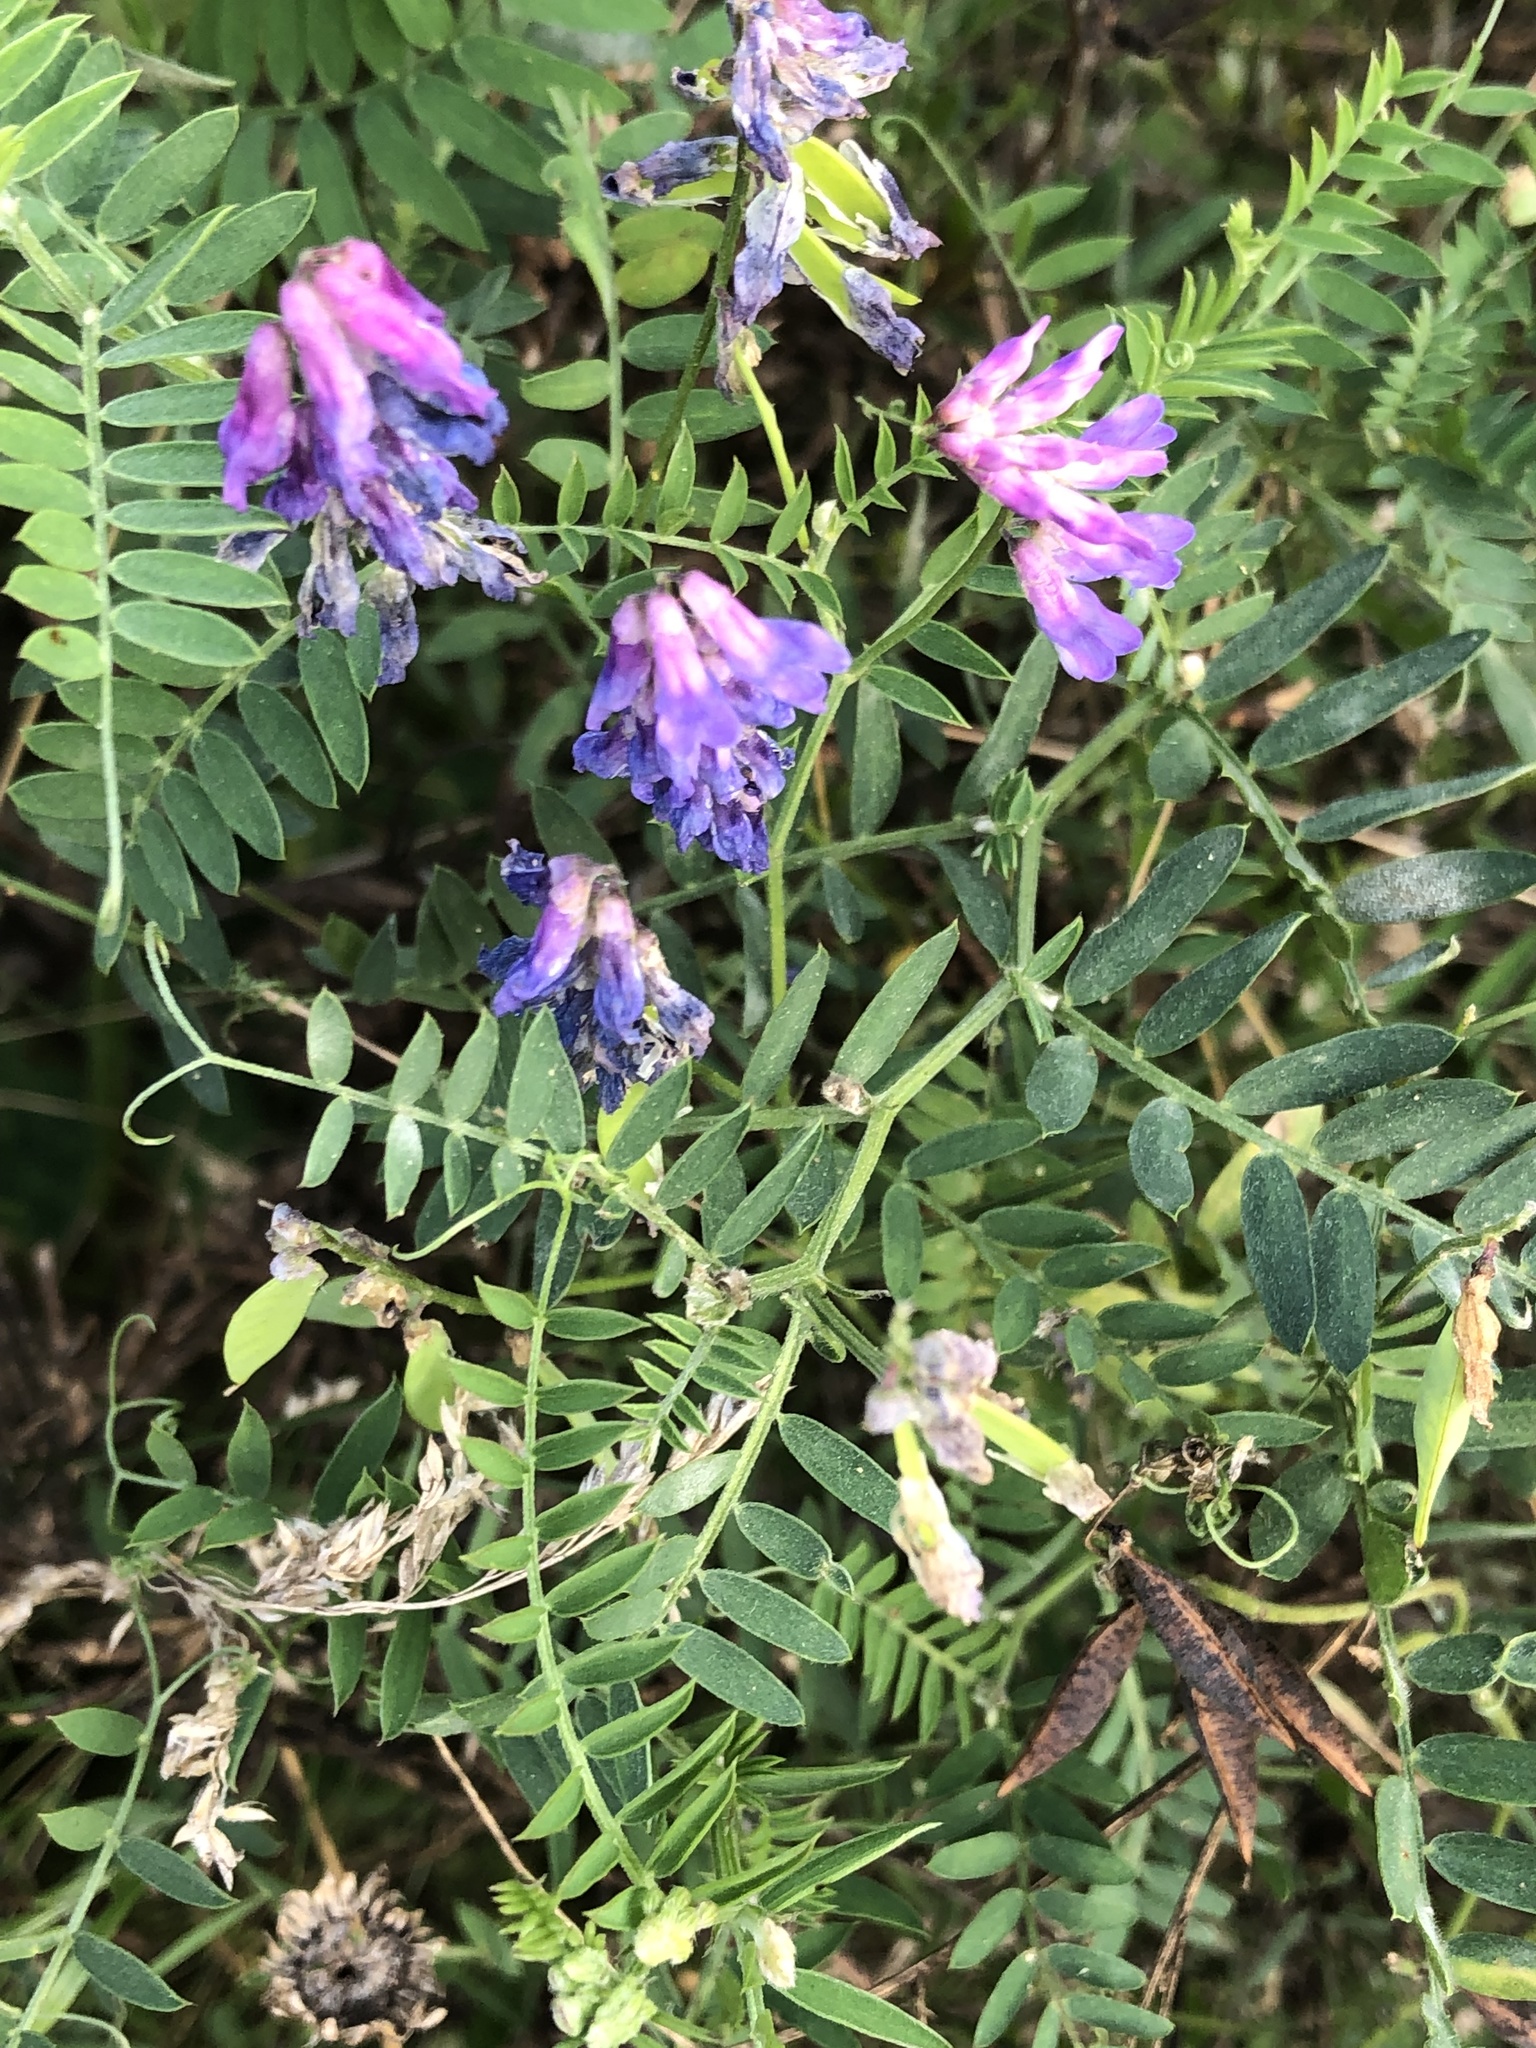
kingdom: Plantae
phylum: Tracheophyta
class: Magnoliopsida
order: Fabales
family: Fabaceae
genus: Vicia
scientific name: Vicia cracca
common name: Bird vetch
